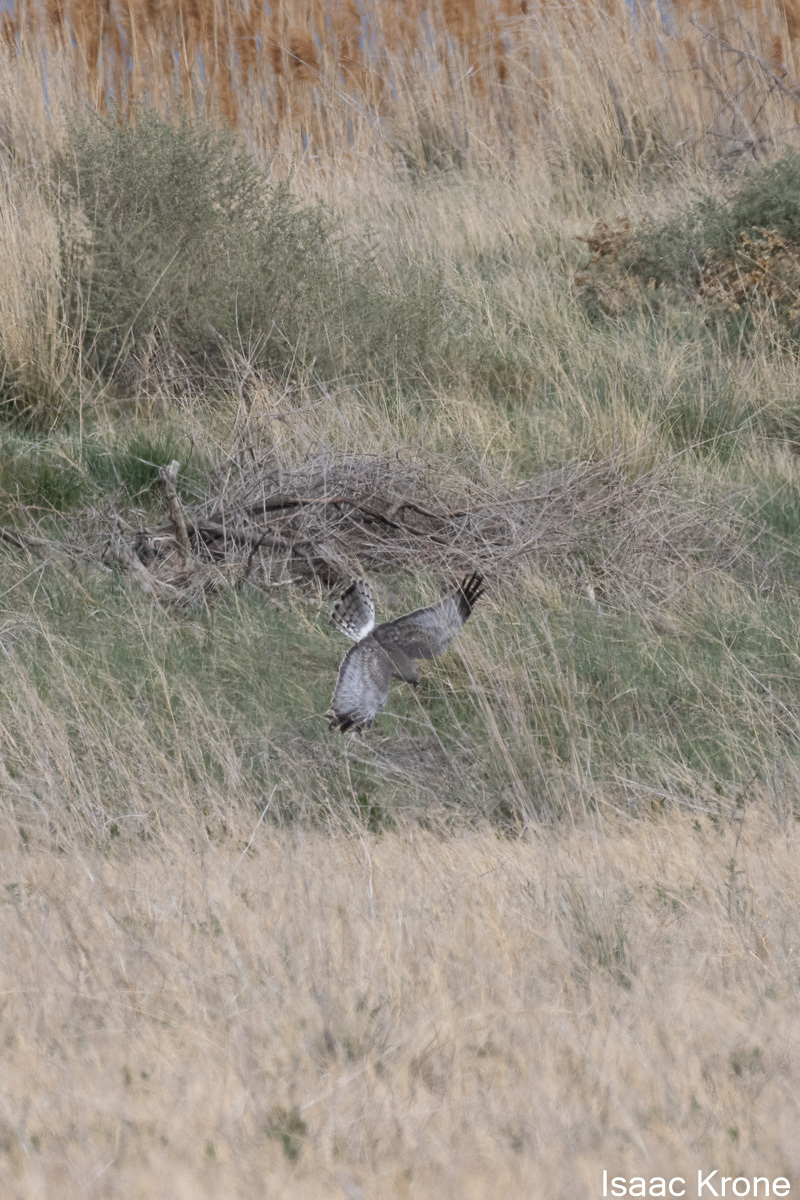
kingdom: Animalia
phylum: Chordata
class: Aves
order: Accipitriformes
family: Accipitridae
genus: Circus
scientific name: Circus cyaneus
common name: Hen harrier
